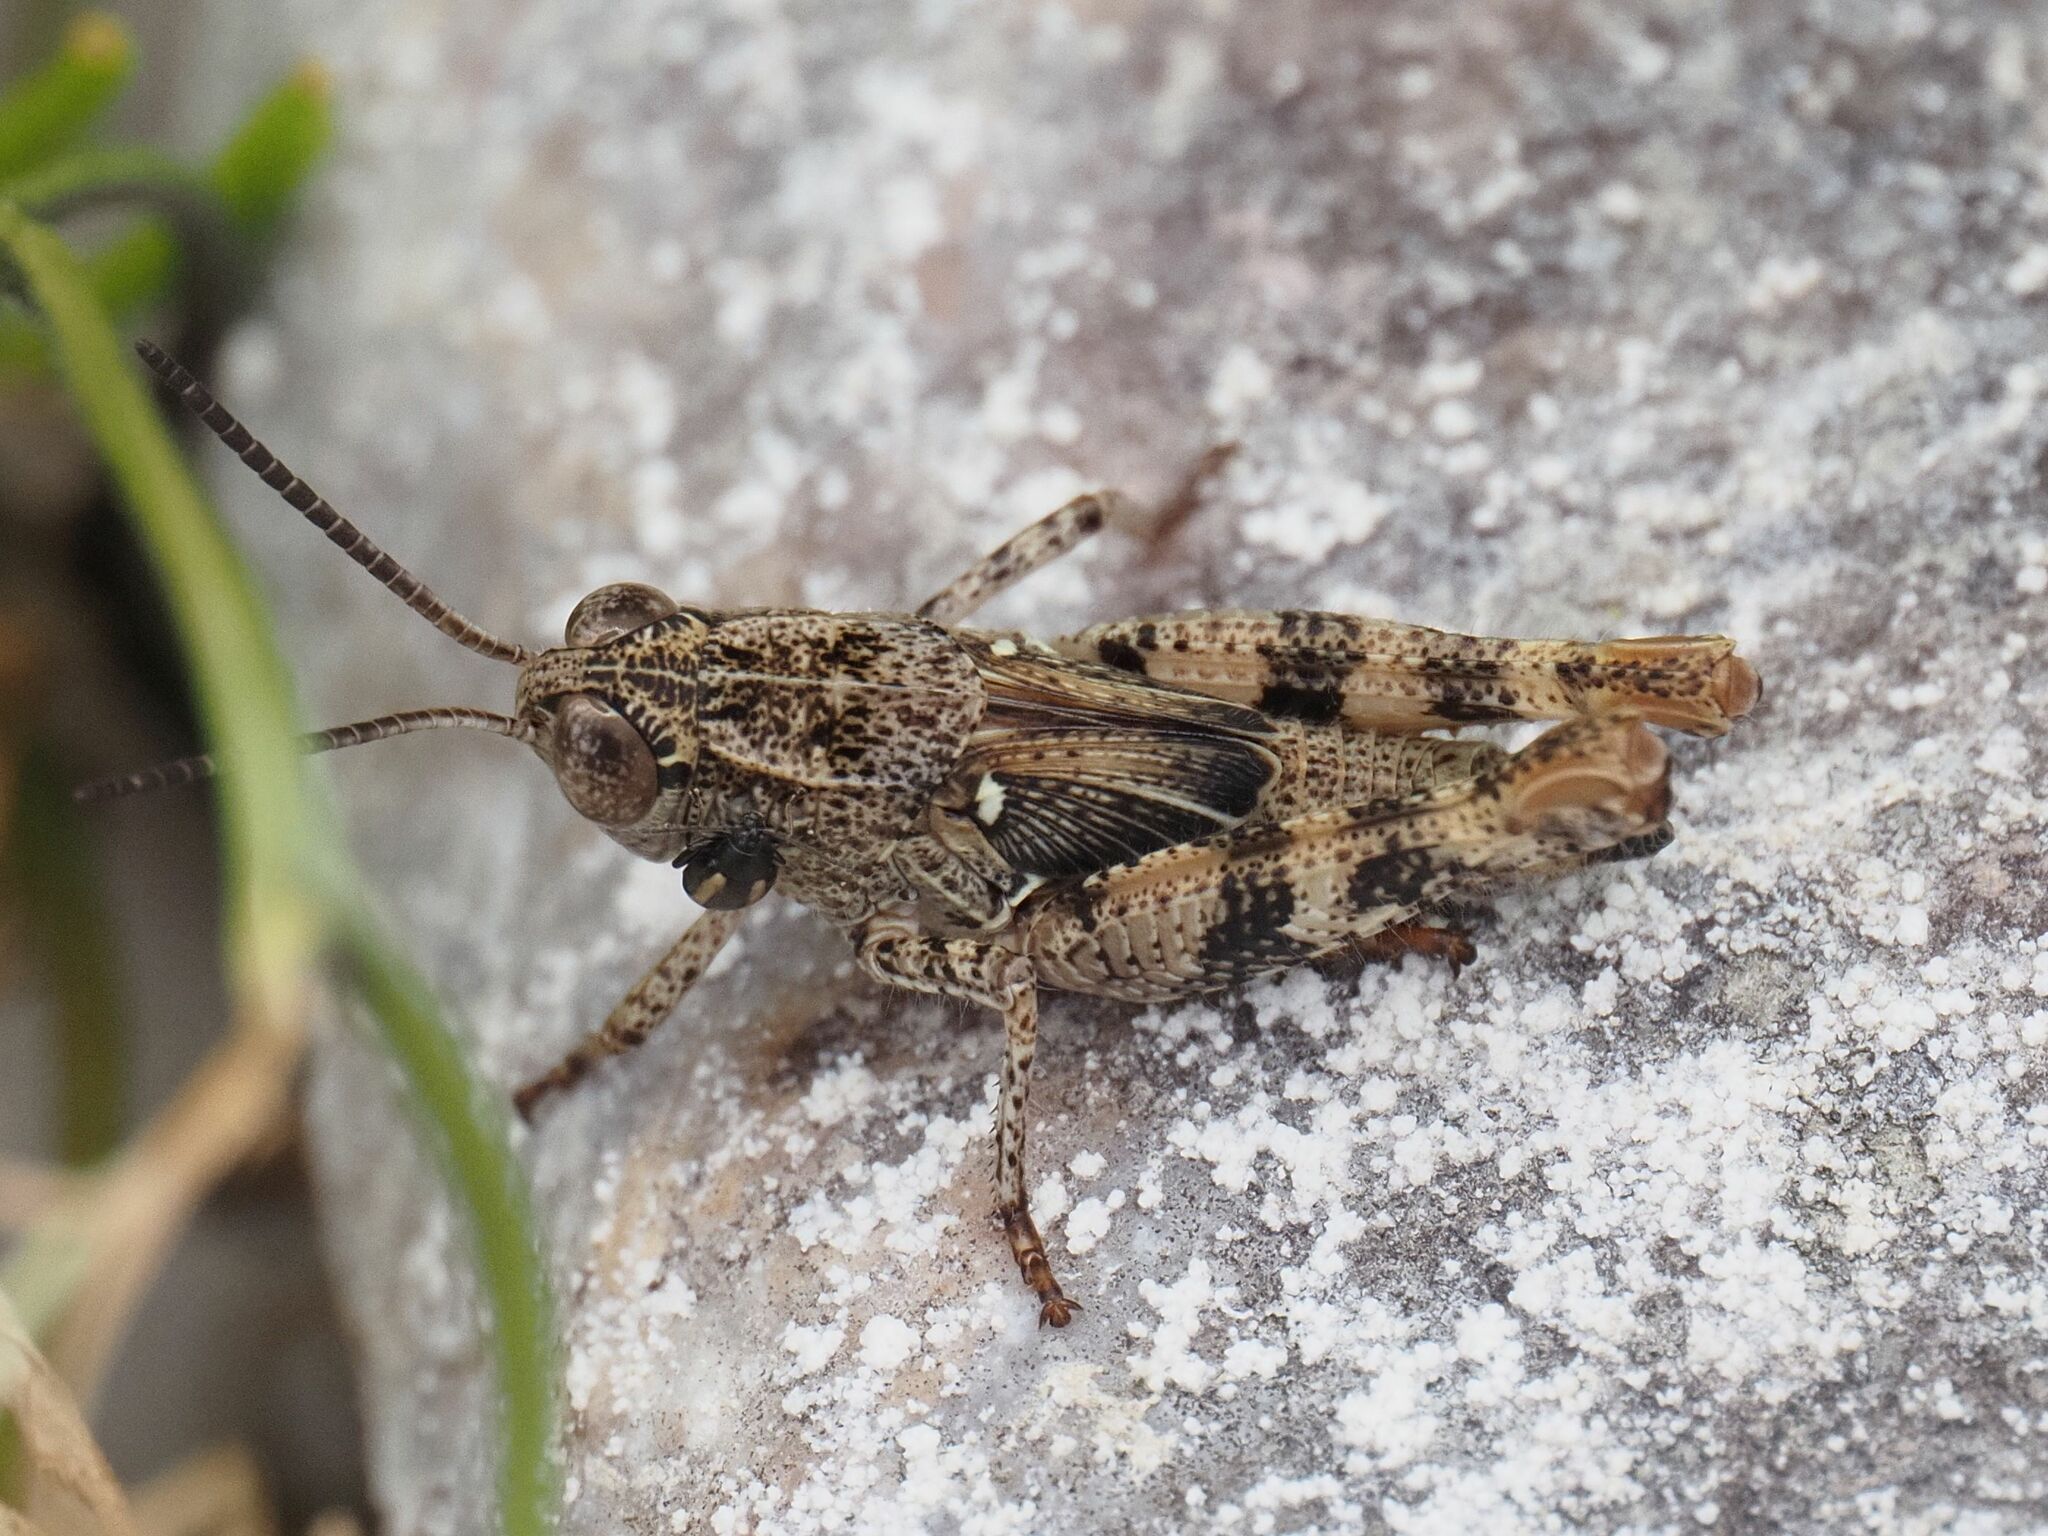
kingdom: Animalia
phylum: Arthropoda
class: Insecta
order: Orthoptera
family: Acrididae
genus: Calliptamus
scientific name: Calliptamus italicus
